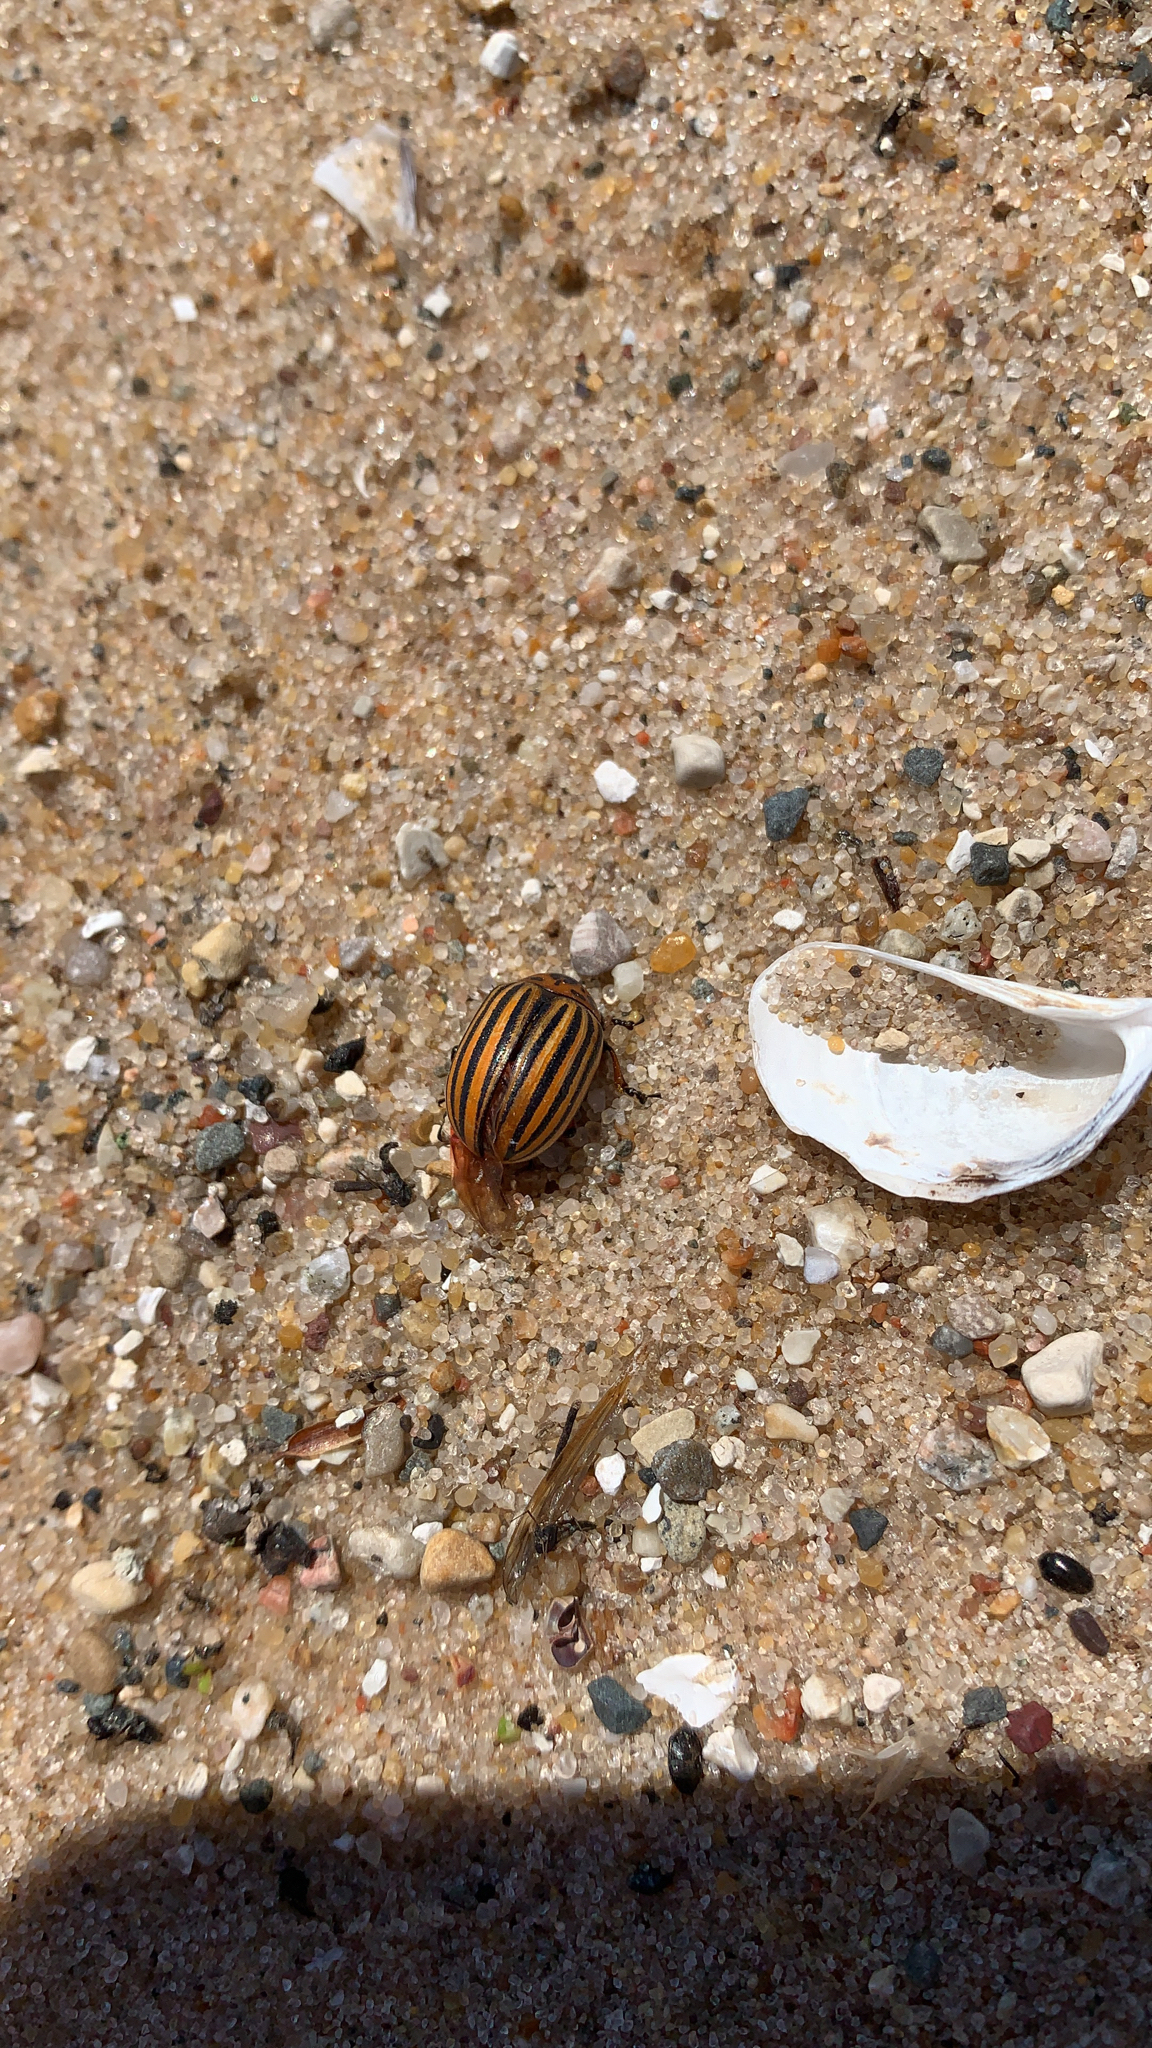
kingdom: Animalia
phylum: Arthropoda
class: Insecta
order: Coleoptera
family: Chrysomelidae
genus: Leptinotarsa
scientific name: Leptinotarsa decemlineata
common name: Colorado potato beetle
